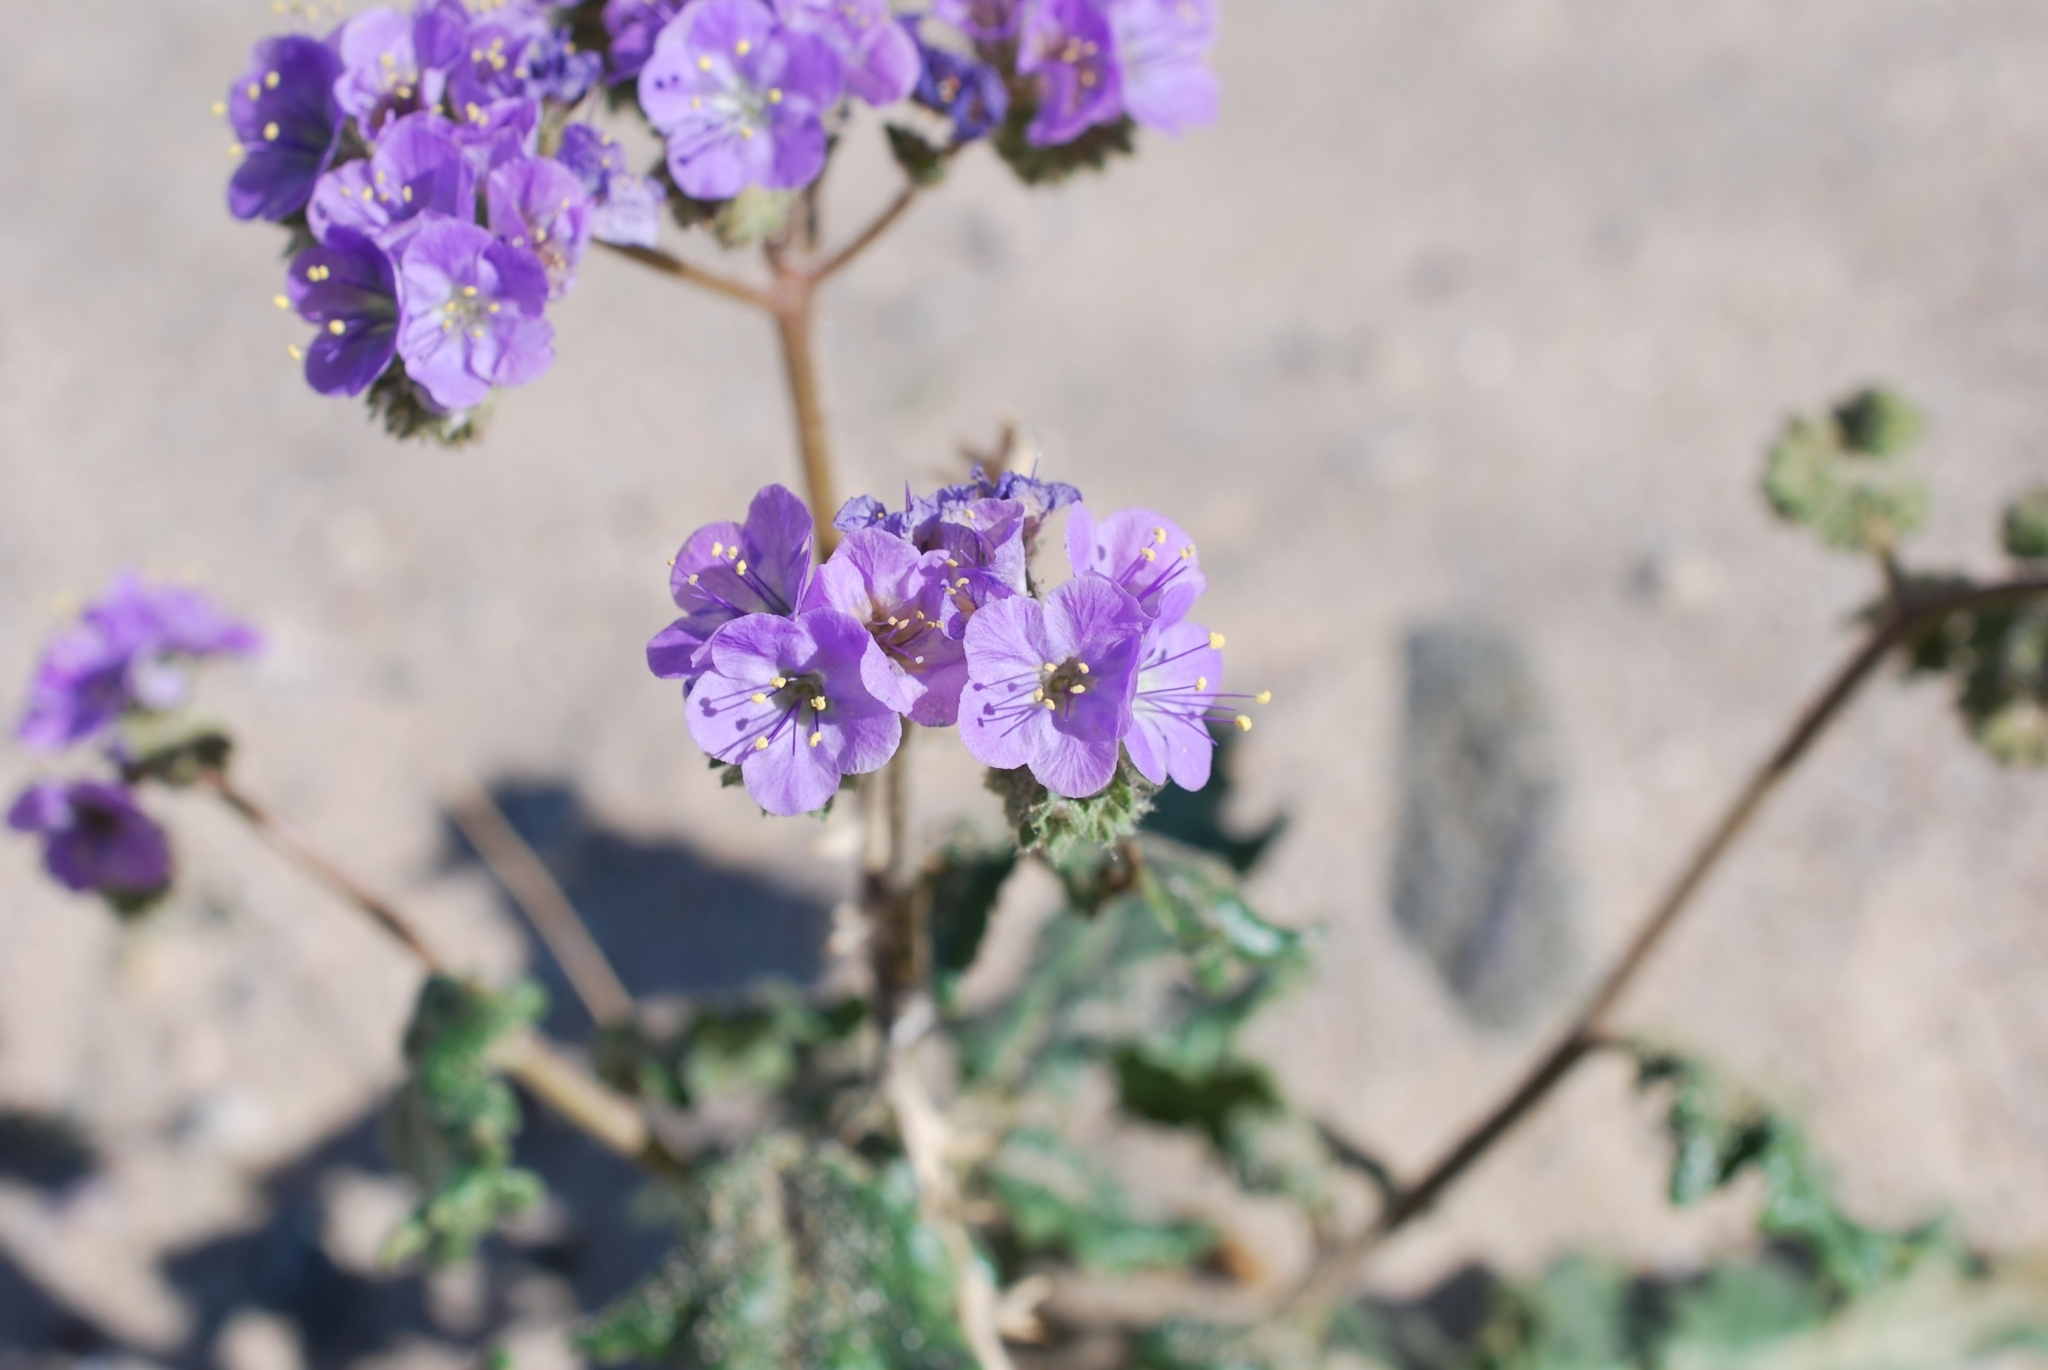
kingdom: Plantae
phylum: Tracheophyta
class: Magnoliopsida
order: Boraginales
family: Hydrophyllaceae
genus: Phacelia
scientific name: Phacelia crenulata
